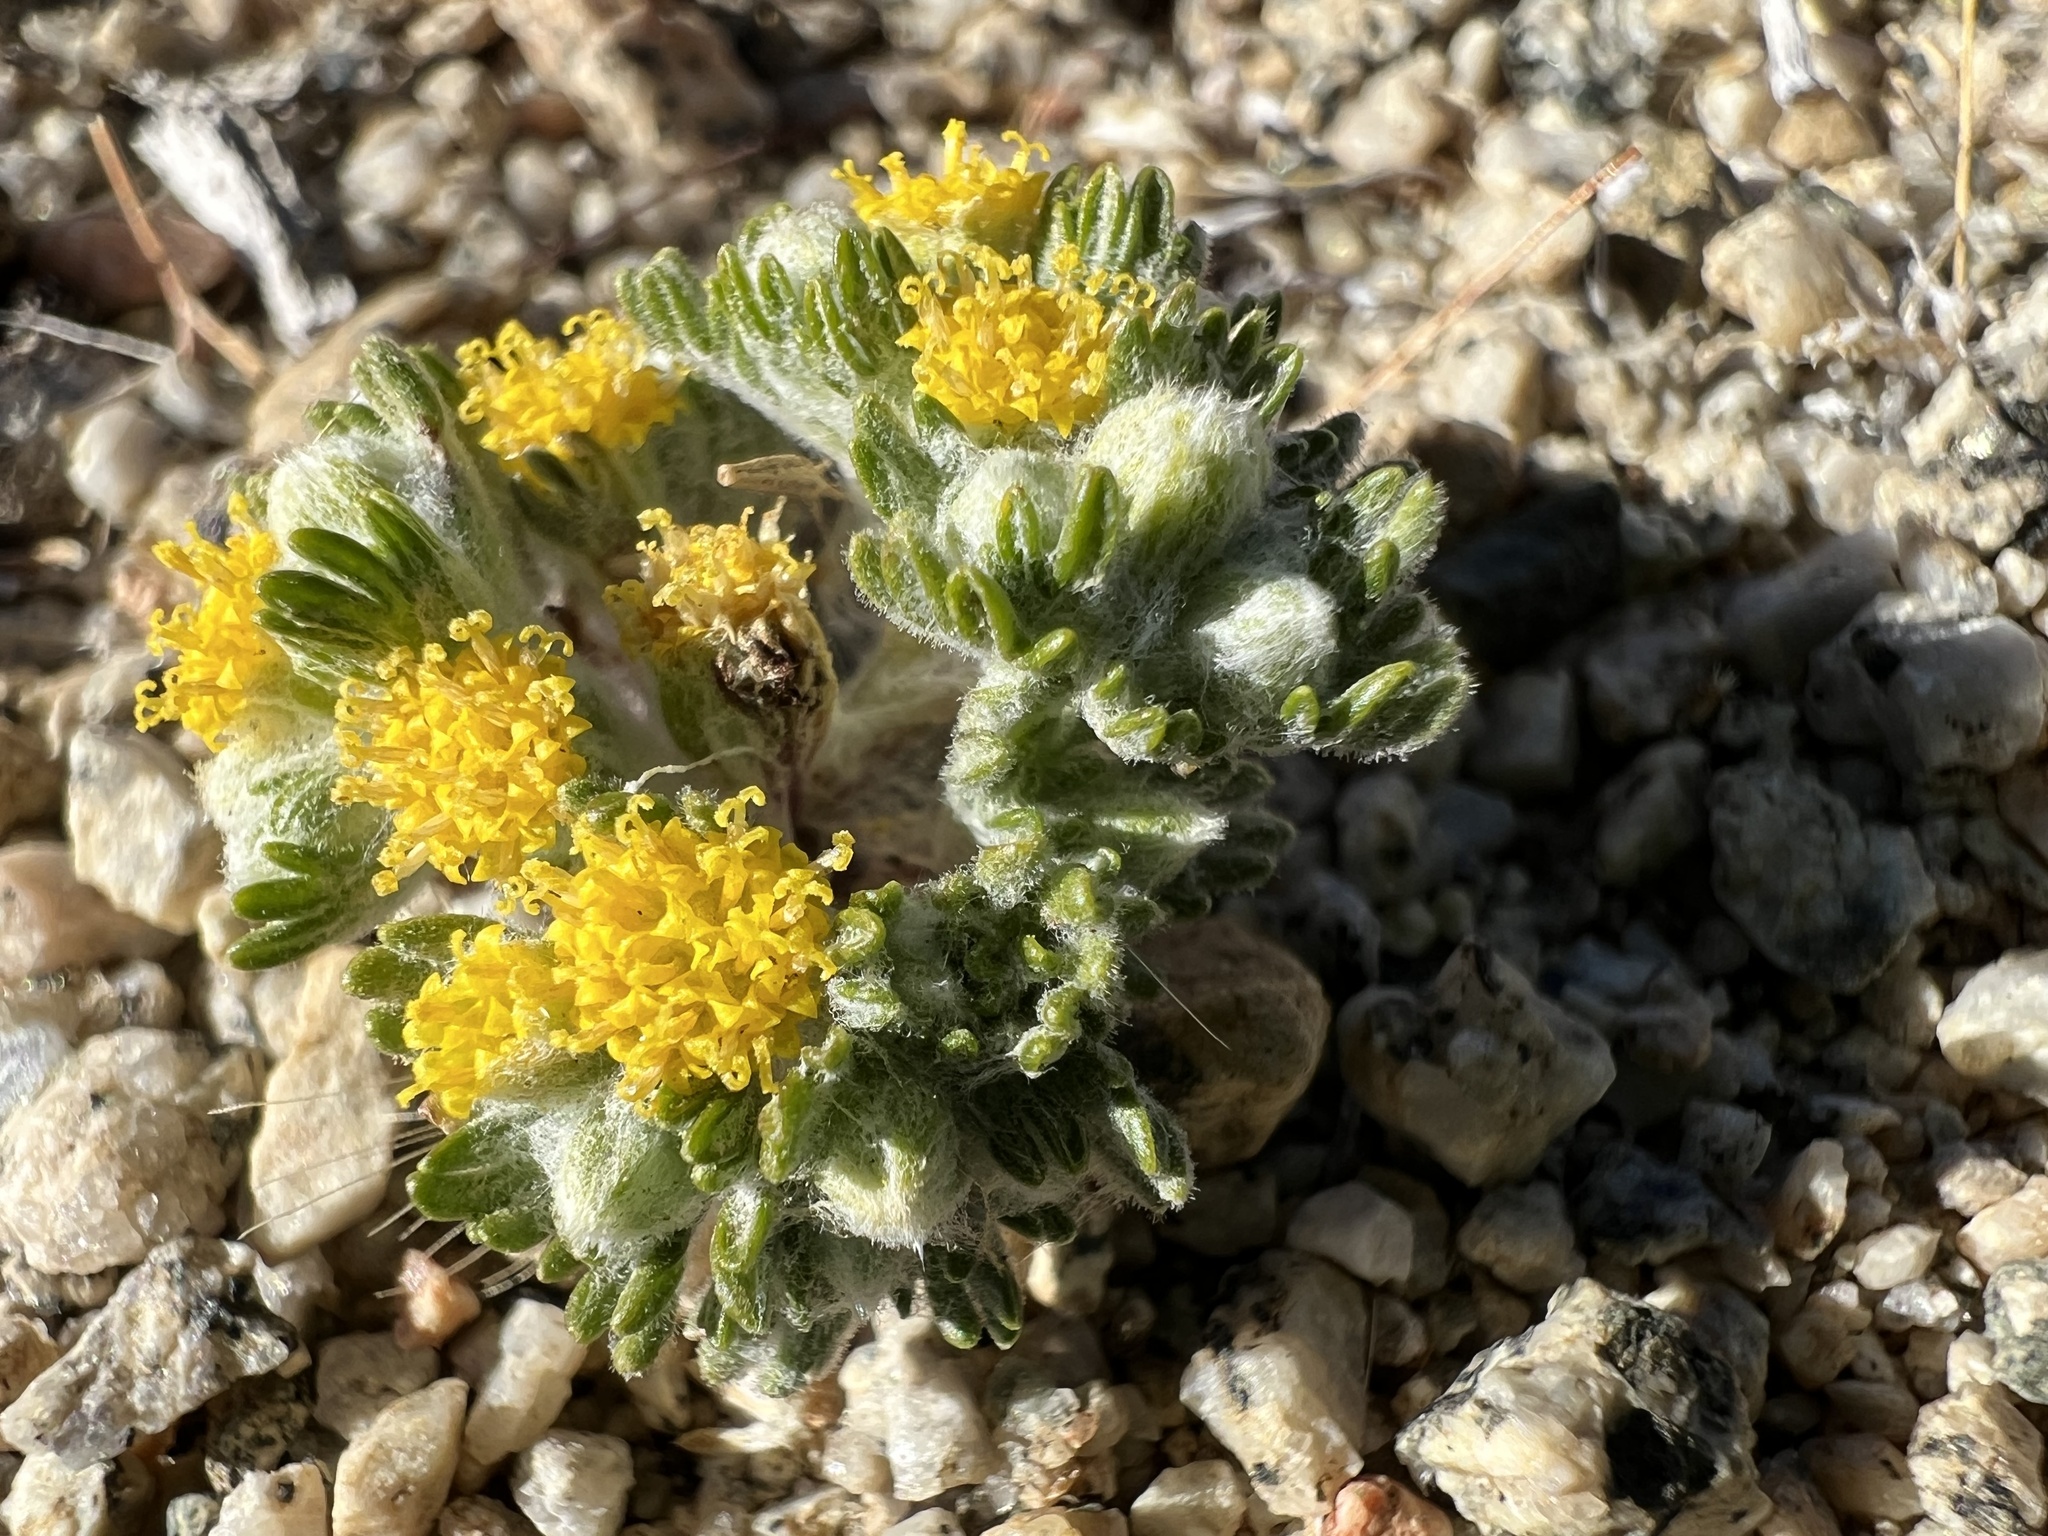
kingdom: Plantae
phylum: Tracheophyta
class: Magnoliopsida
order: Asterales
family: Asteraceae
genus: Eriophyllum
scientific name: Eriophyllum pringlei
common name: Pringle's woolly-sunflower
